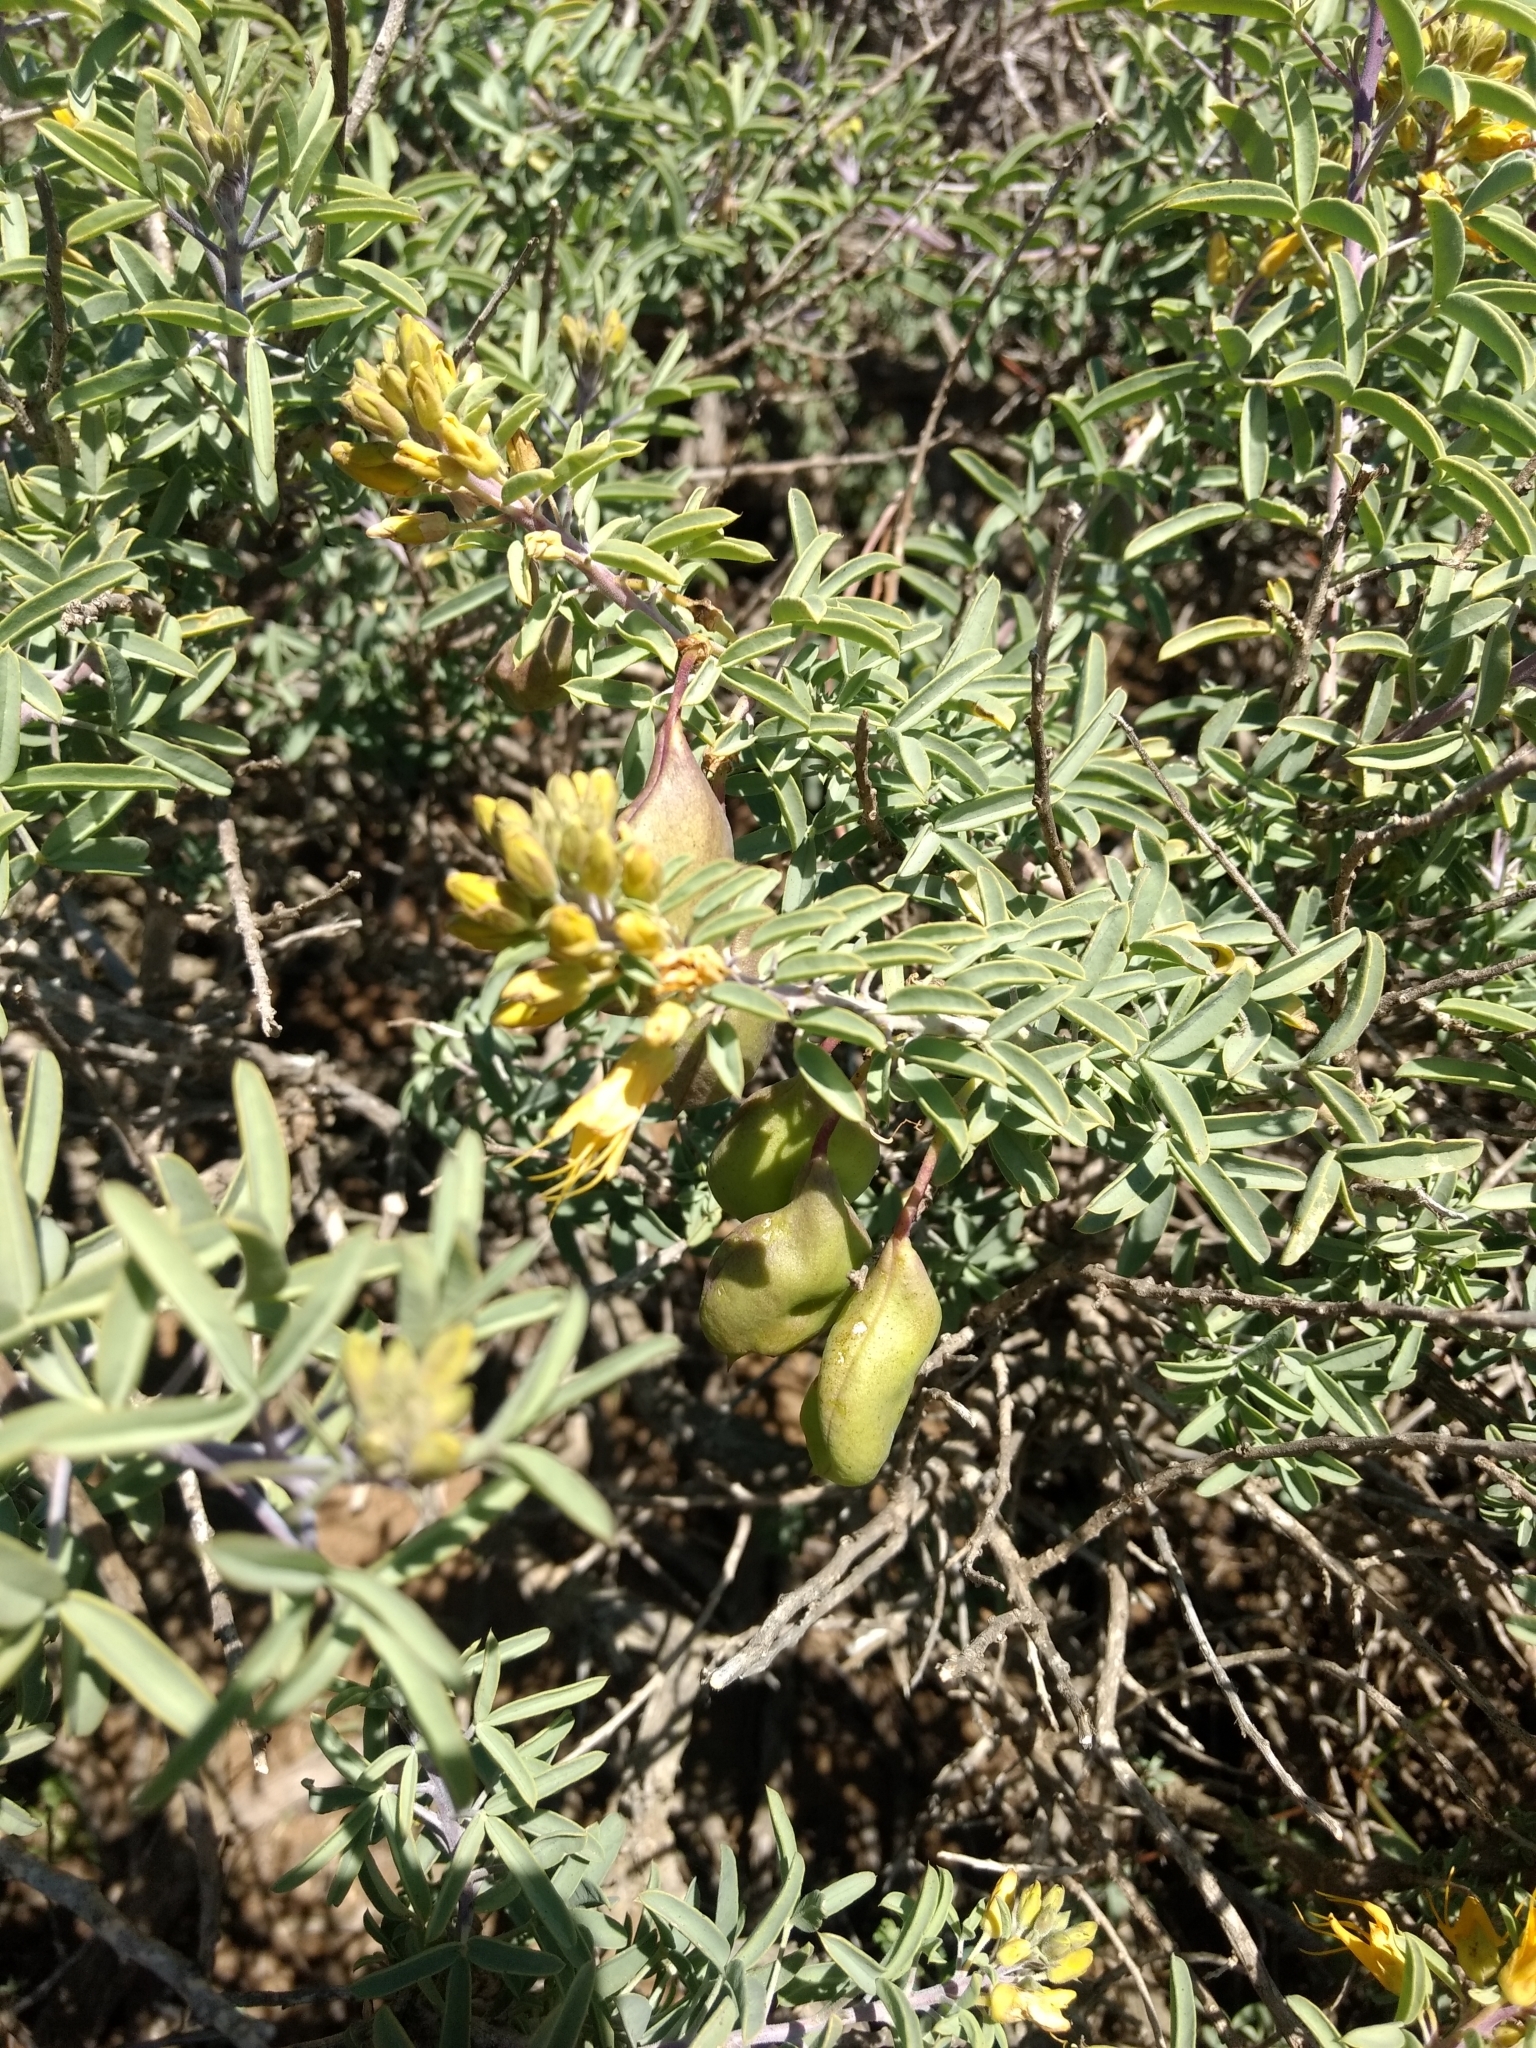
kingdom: Plantae
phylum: Tracheophyta
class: Magnoliopsida
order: Brassicales
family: Cleomaceae
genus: Cleomella
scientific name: Cleomella arborea
